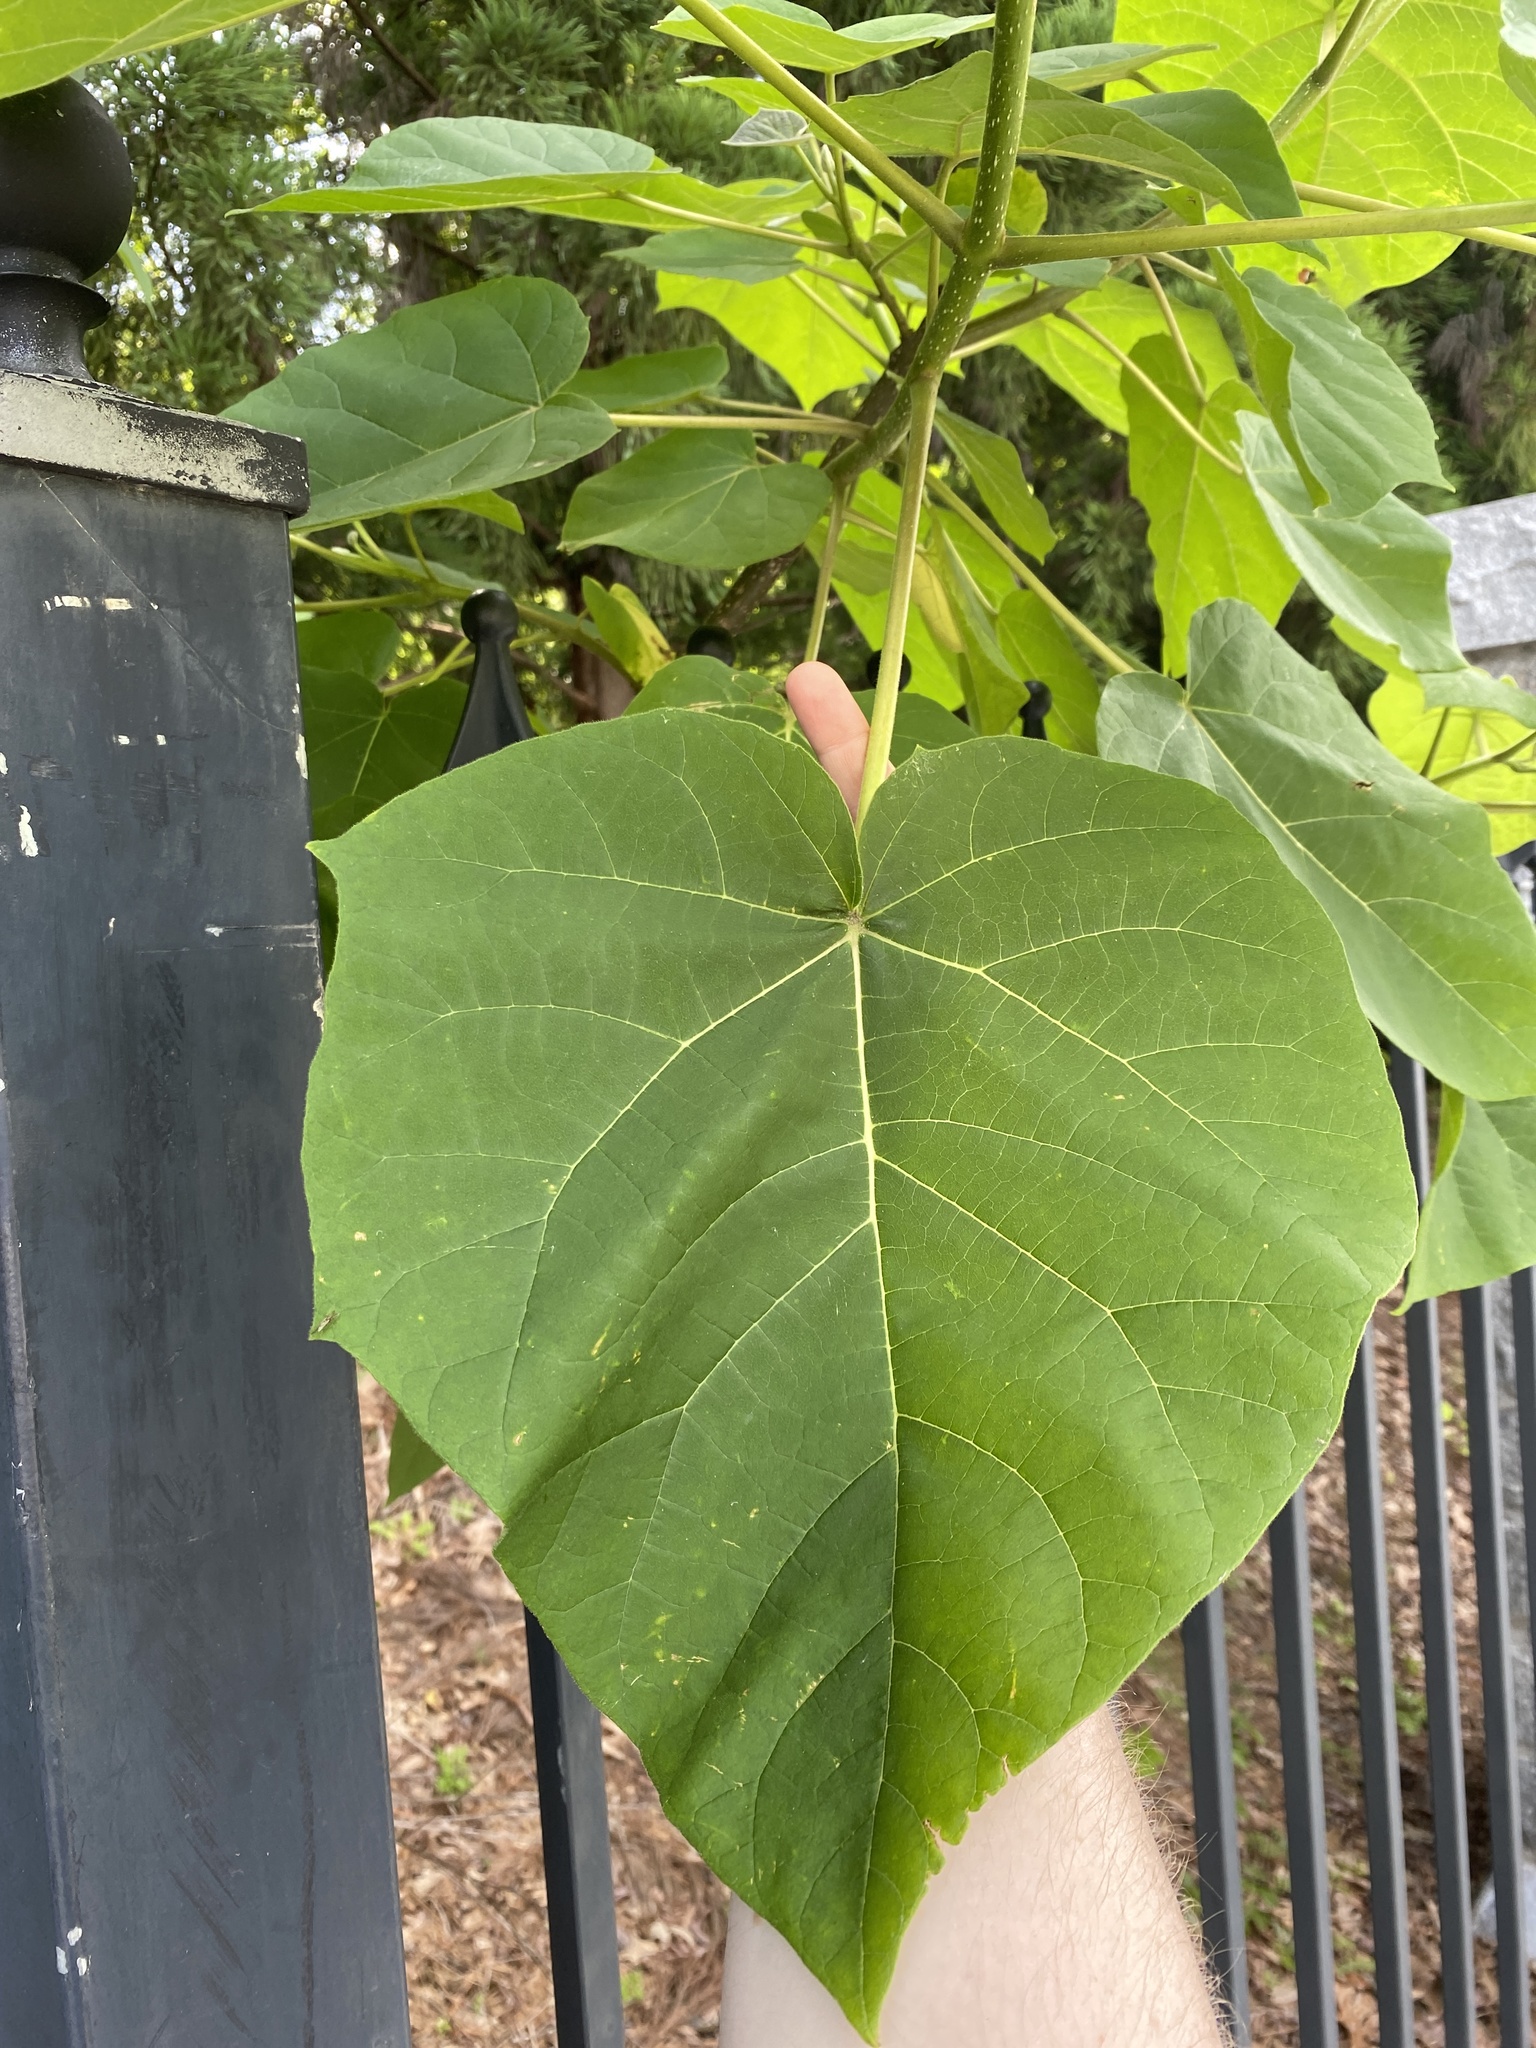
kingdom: Plantae
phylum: Tracheophyta
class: Magnoliopsida
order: Lamiales
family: Paulowniaceae
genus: Paulownia
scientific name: Paulownia tomentosa
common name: Foxglove-tree
